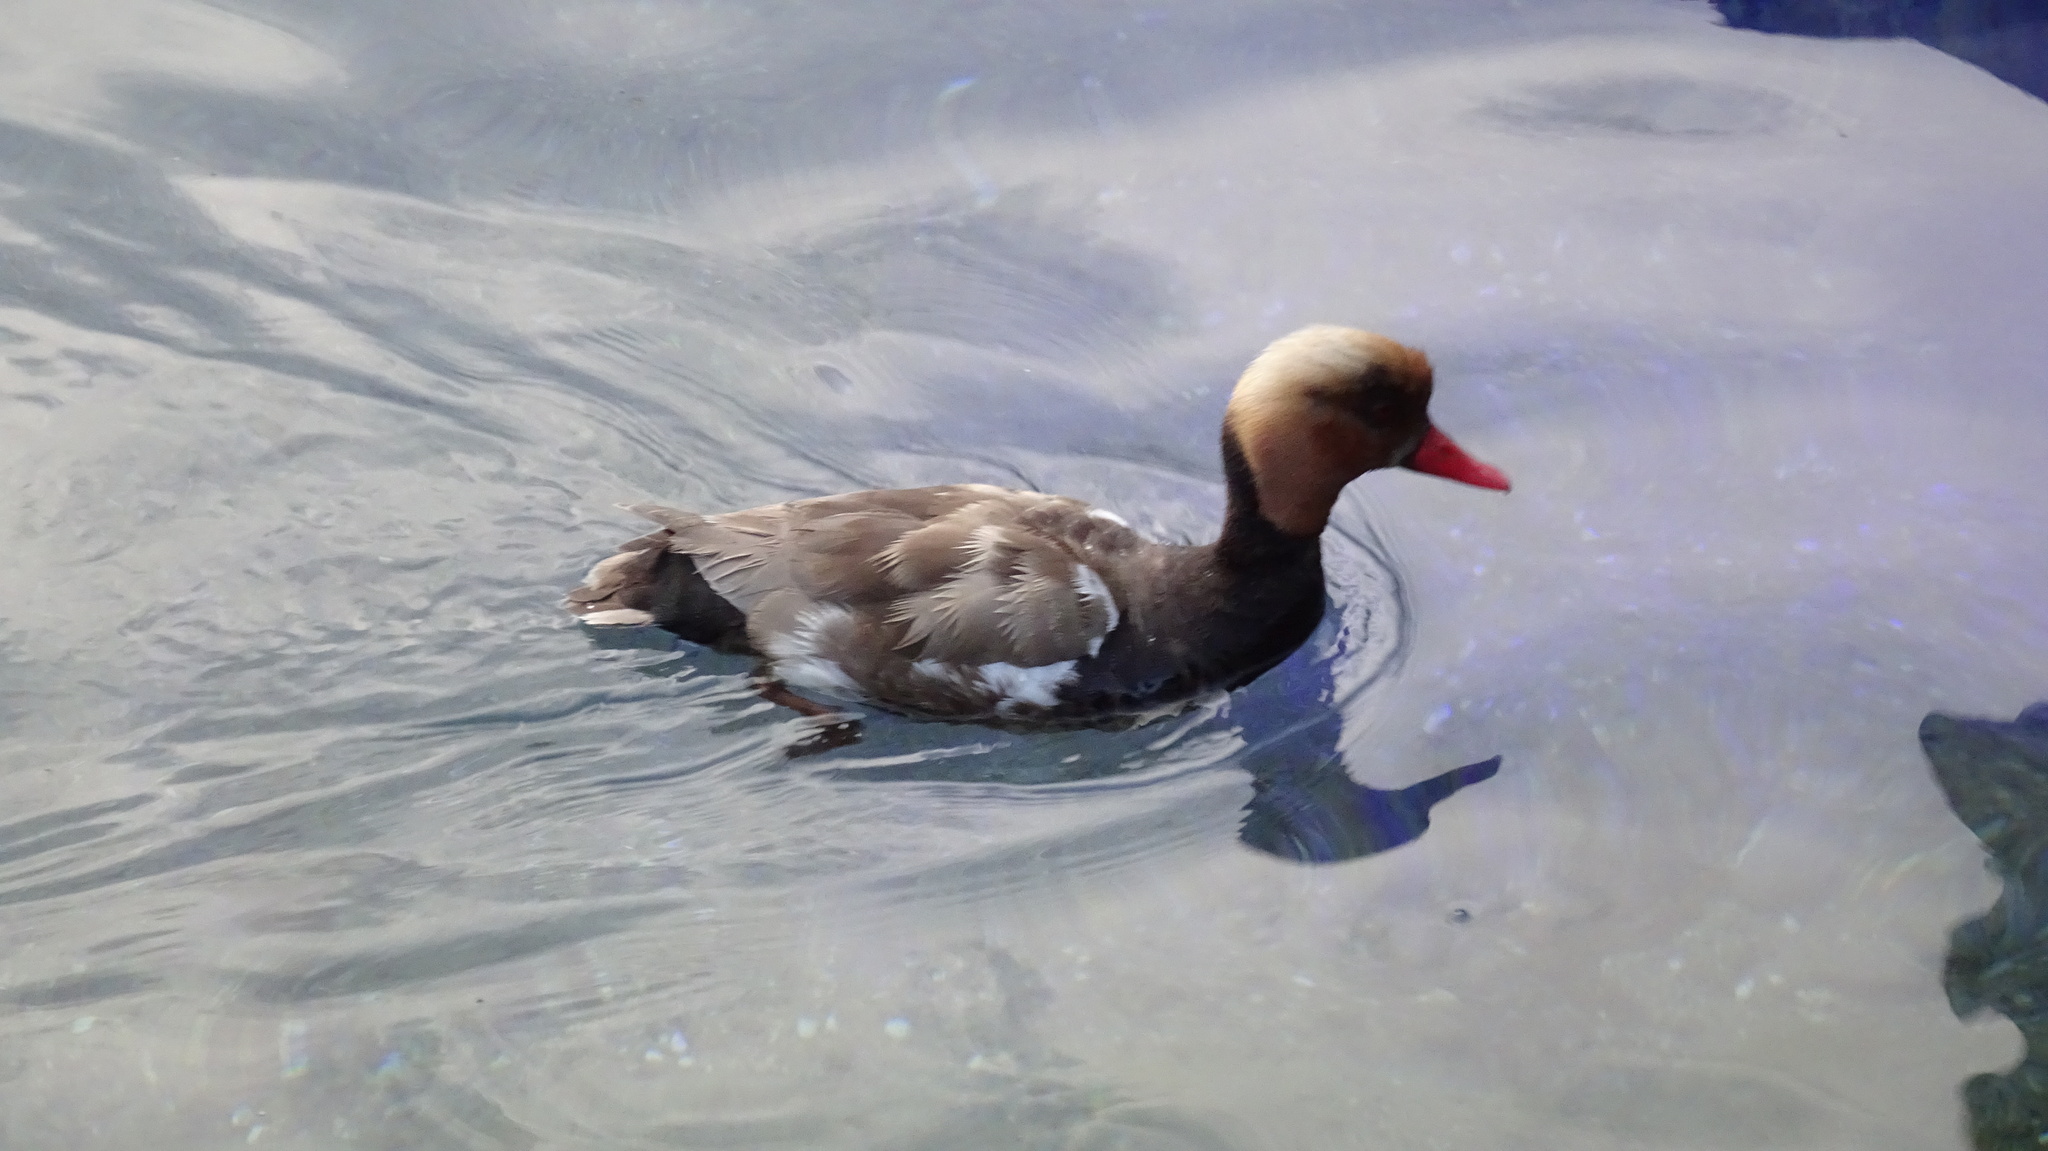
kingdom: Animalia
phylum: Chordata
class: Aves
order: Anseriformes
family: Anatidae
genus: Netta
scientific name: Netta rufina
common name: Red-crested pochard
